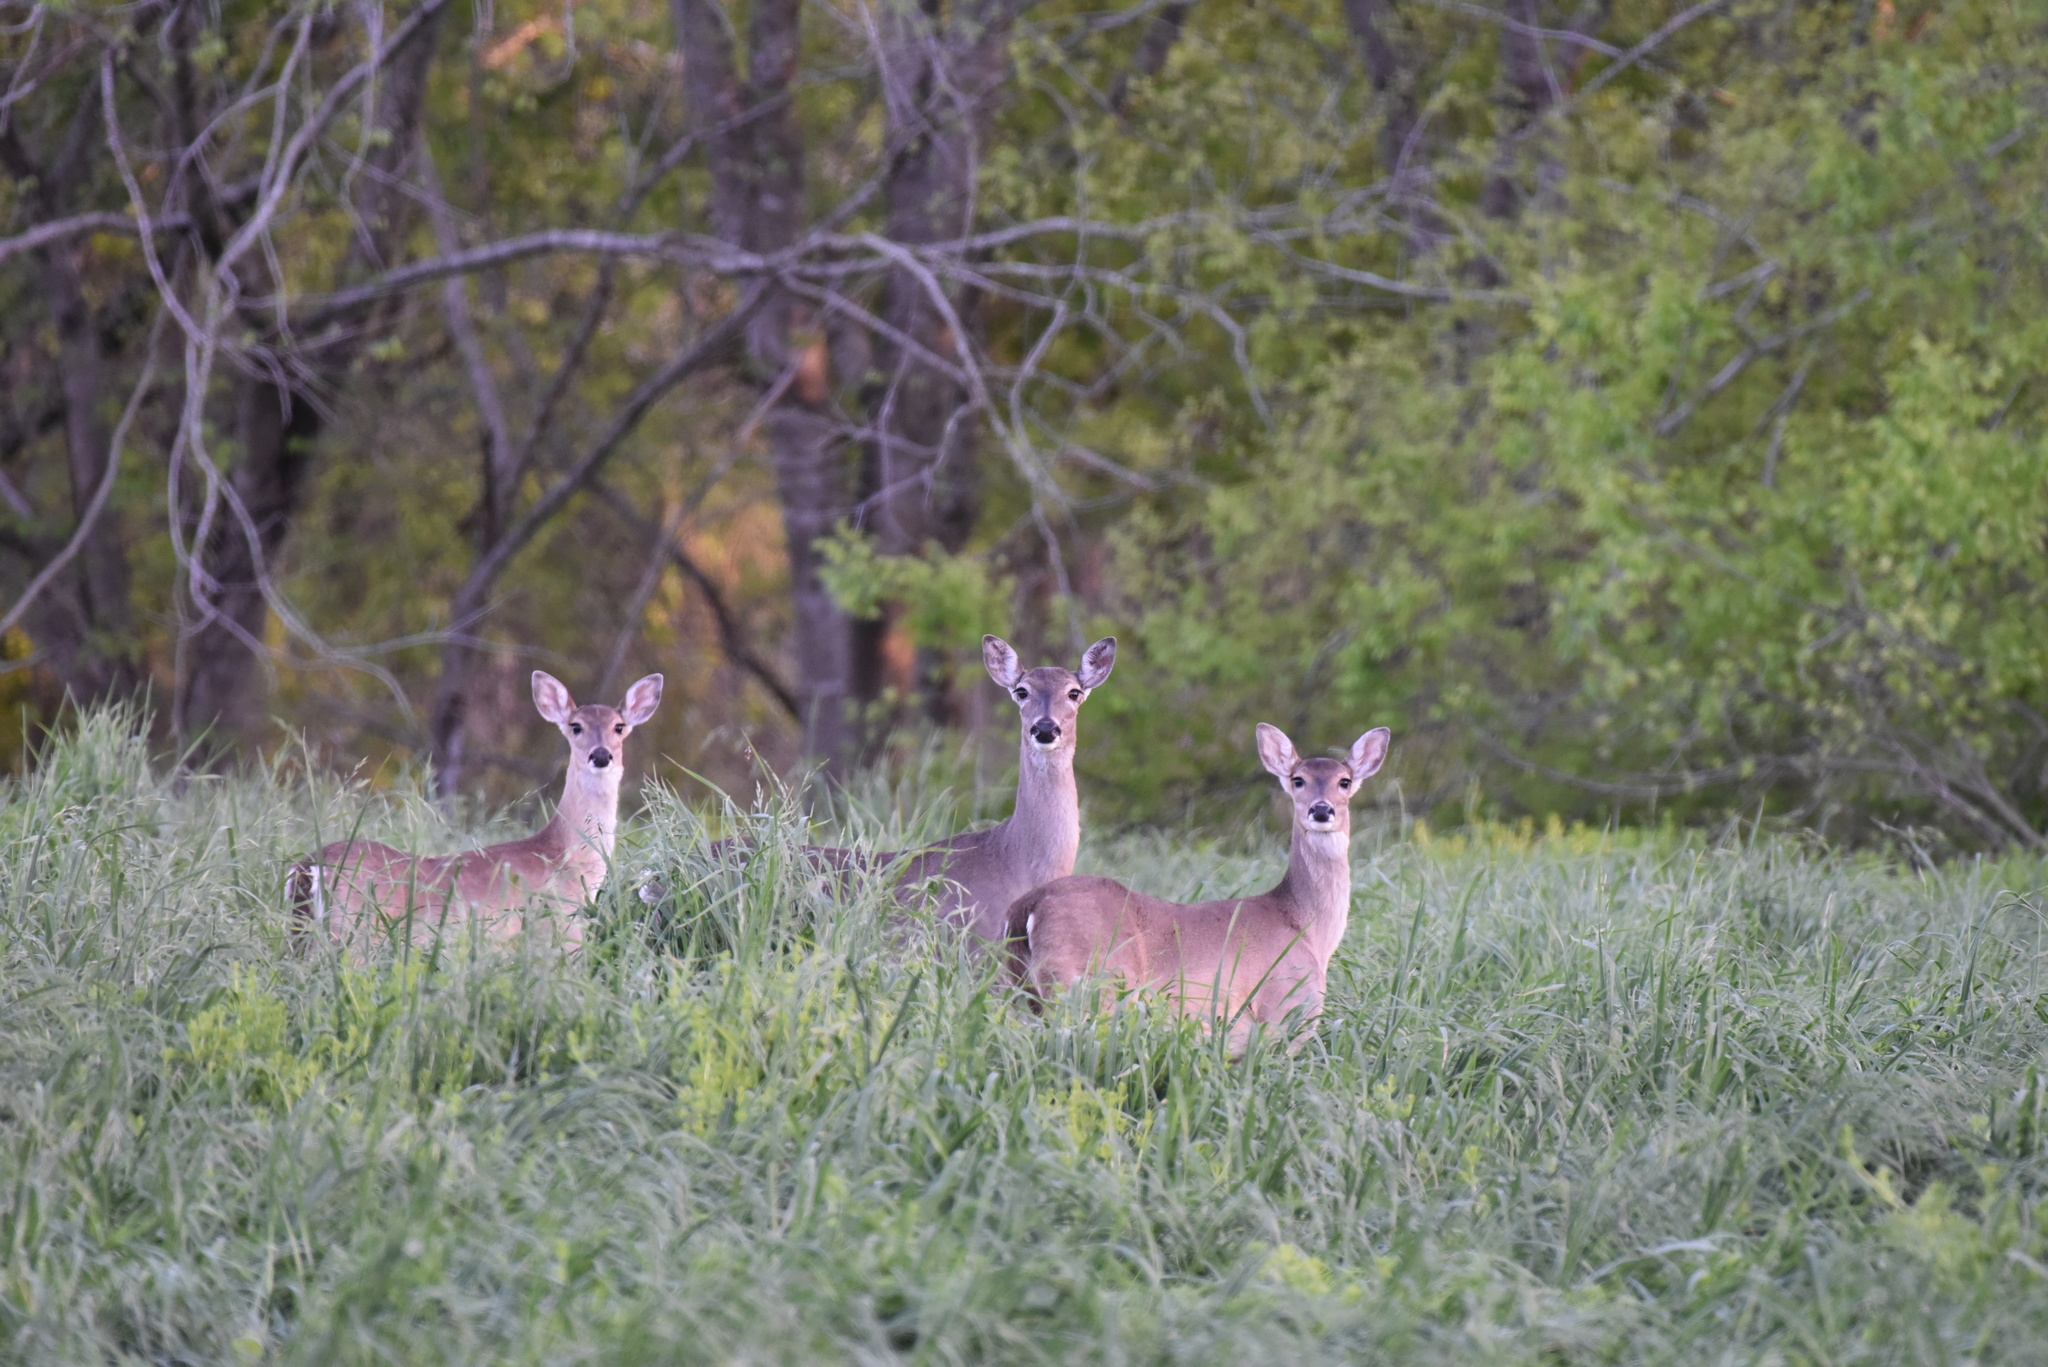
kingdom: Animalia
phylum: Chordata
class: Mammalia
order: Artiodactyla
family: Cervidae
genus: Odocoileus
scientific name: Odocoileus virginianus
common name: White-tailed deer
